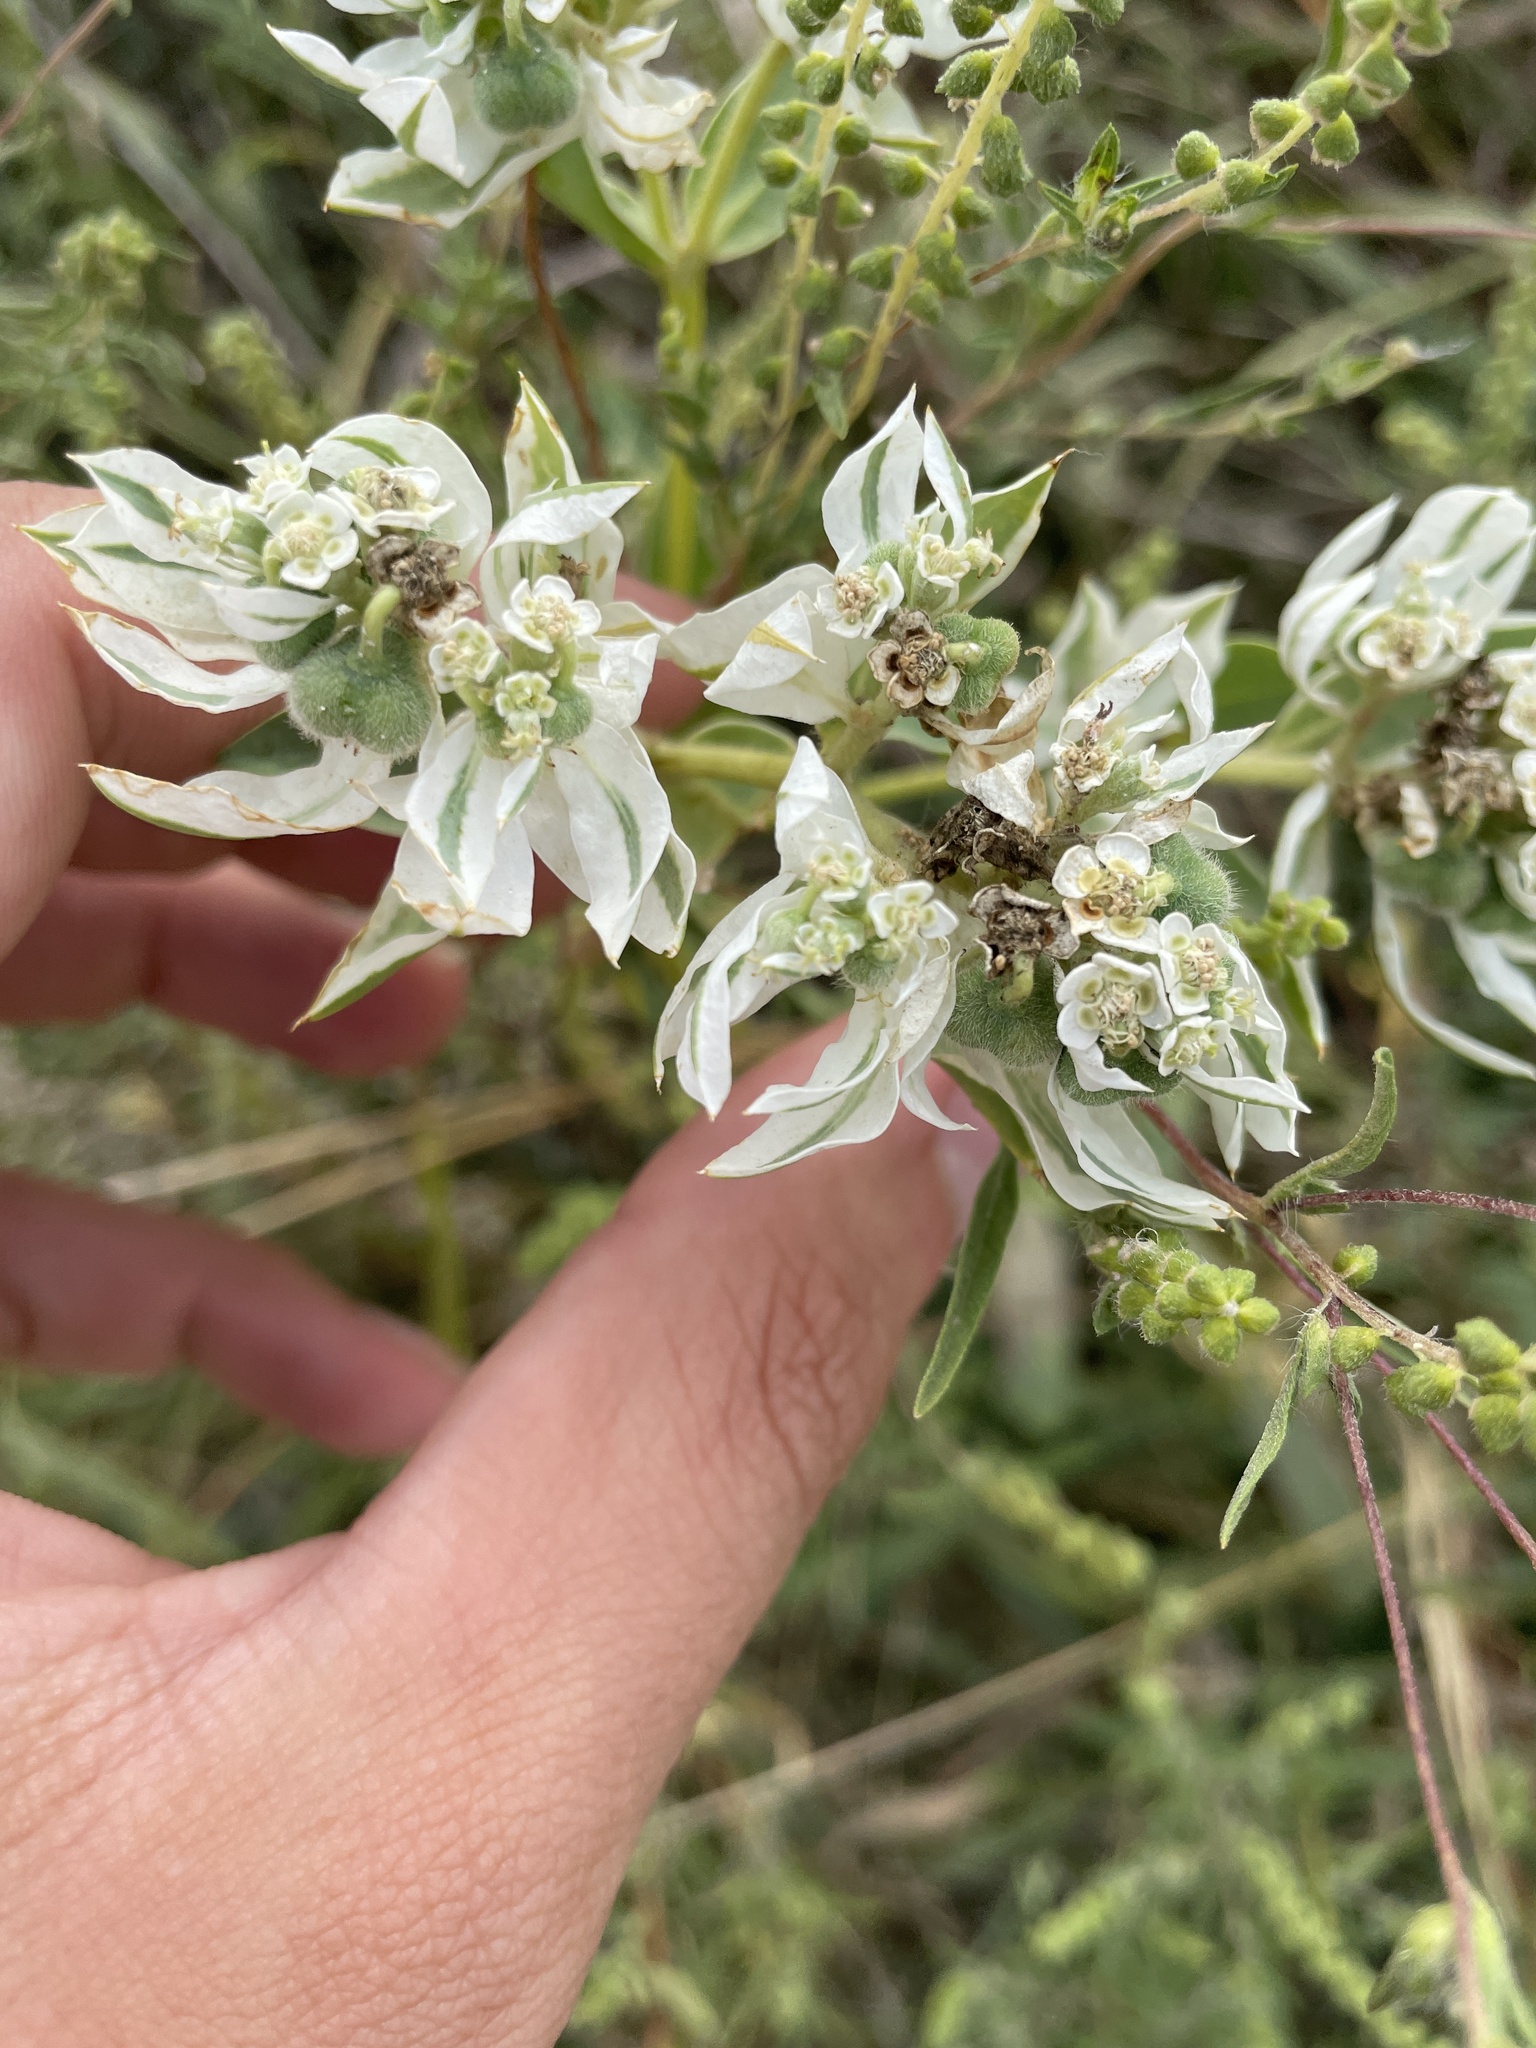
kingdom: Plantae
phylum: Tracheophyta
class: Magnoliopsida
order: Malpighiales
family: Euphorbiaceae
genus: Euphorbia
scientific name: Euphorbia marginata
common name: Ghostweed
